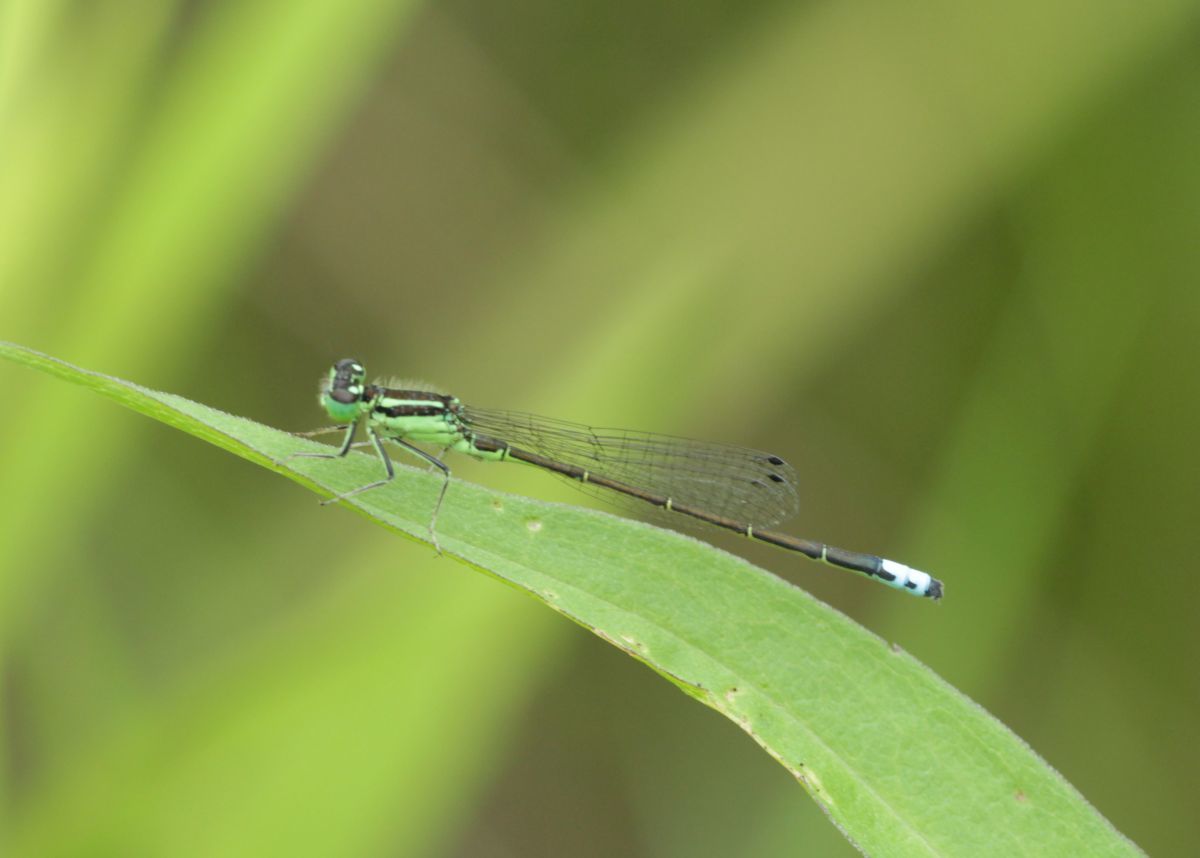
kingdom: Animalia
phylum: Arthropoda
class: Insecta
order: Odonata
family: Coenagrionidae
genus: Ischnura
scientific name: Ischnura verticalis
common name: Eastern forktail
